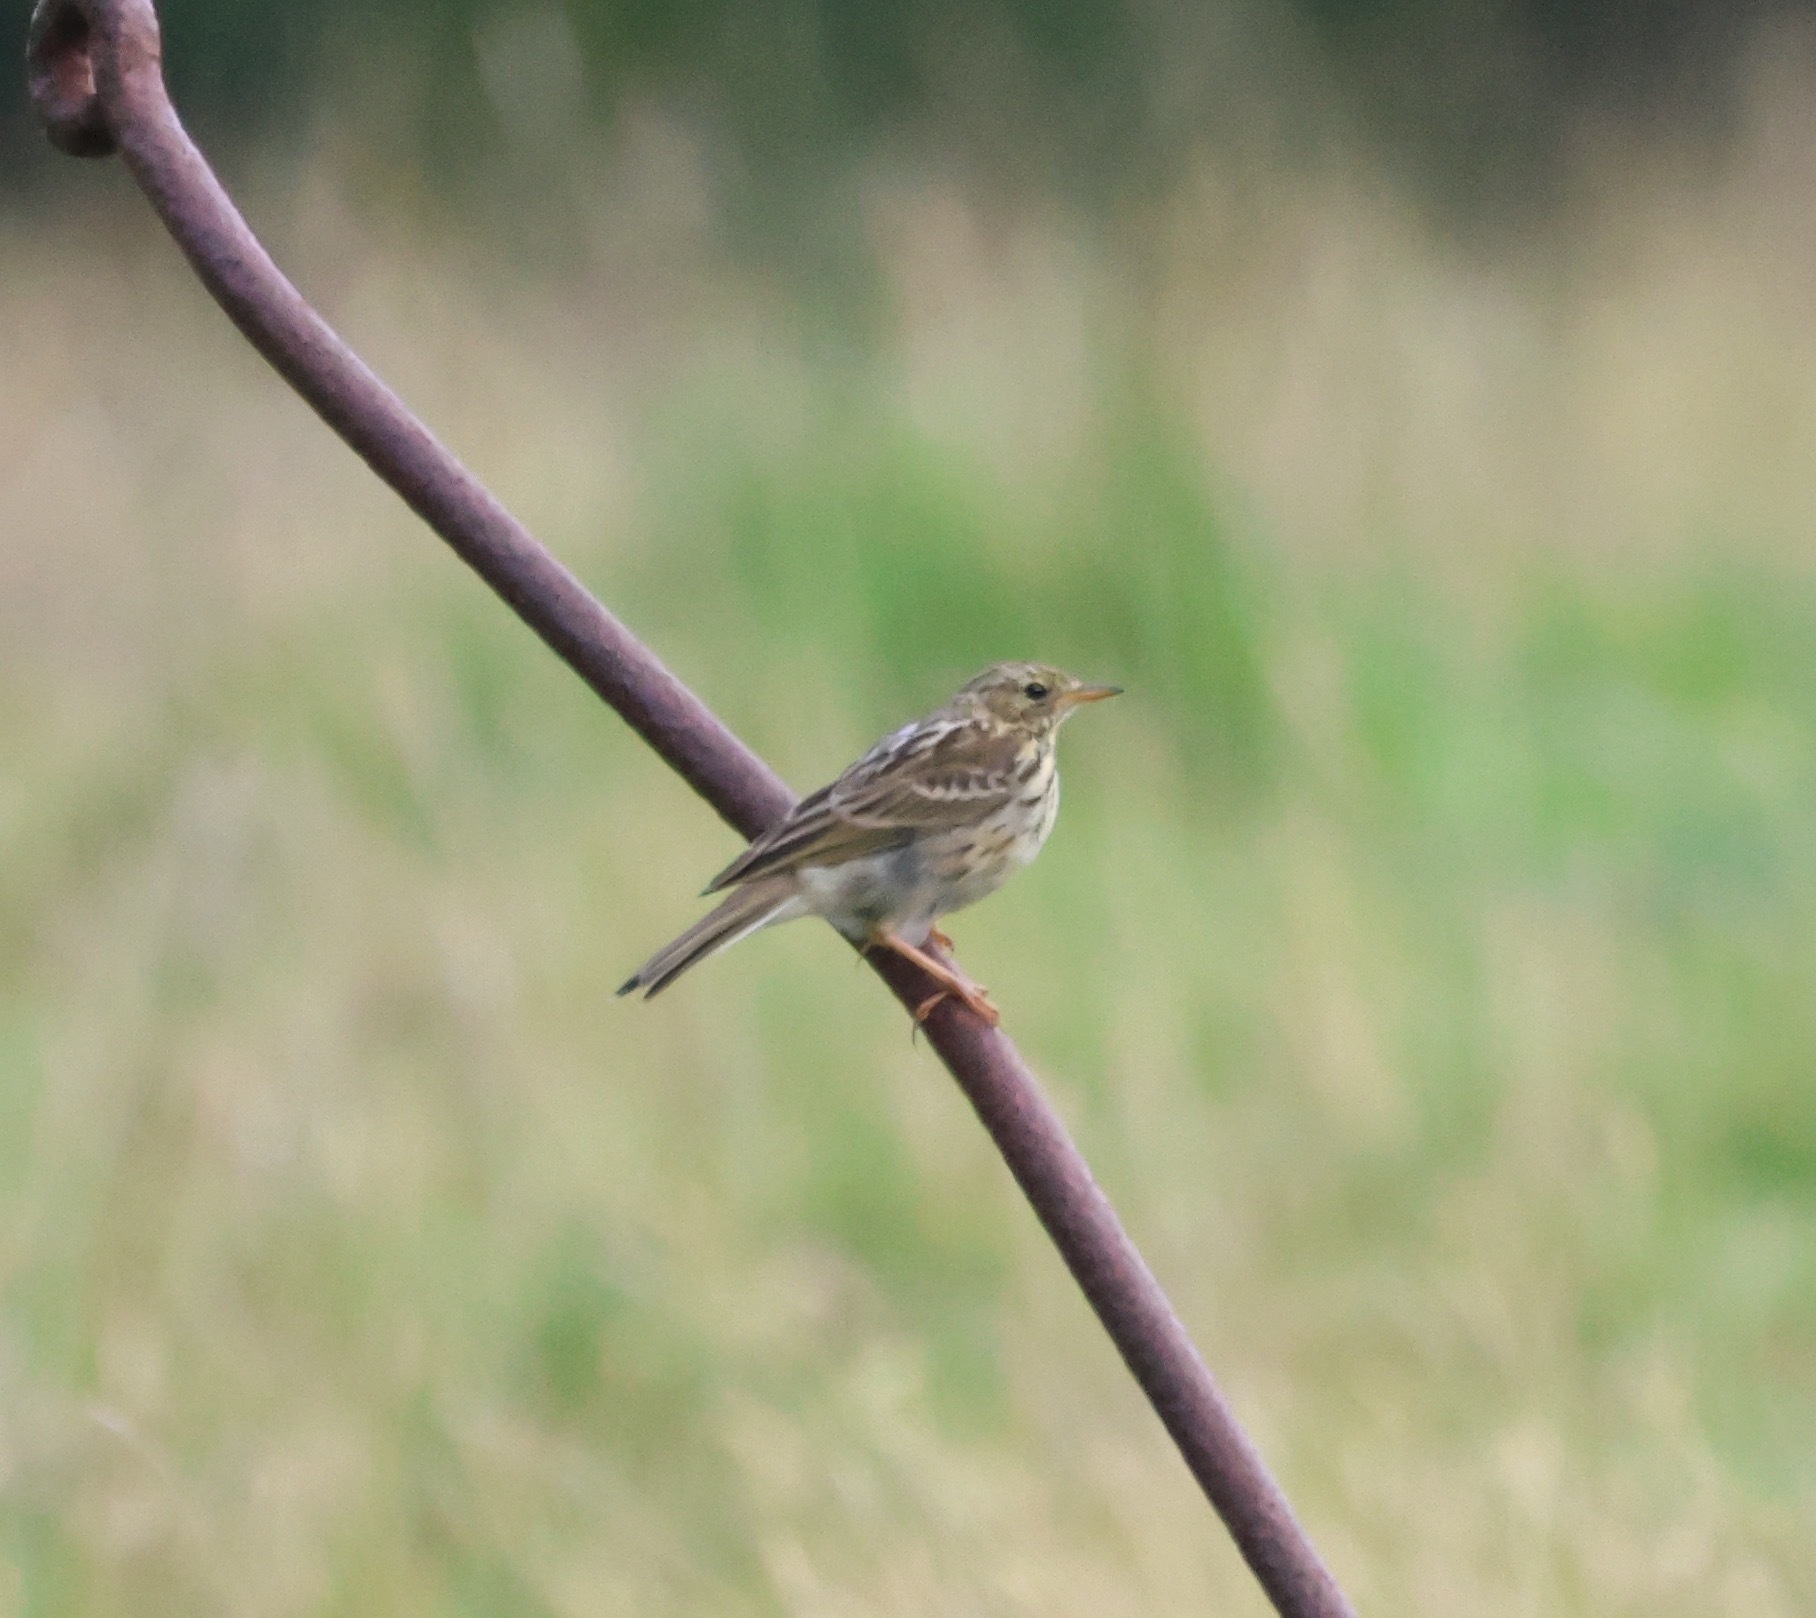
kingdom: Animalia
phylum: Chordata
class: Aves
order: Passeriformes
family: Motacillidae
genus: Anthus
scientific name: Anthus pratensis
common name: Meadow pipit
